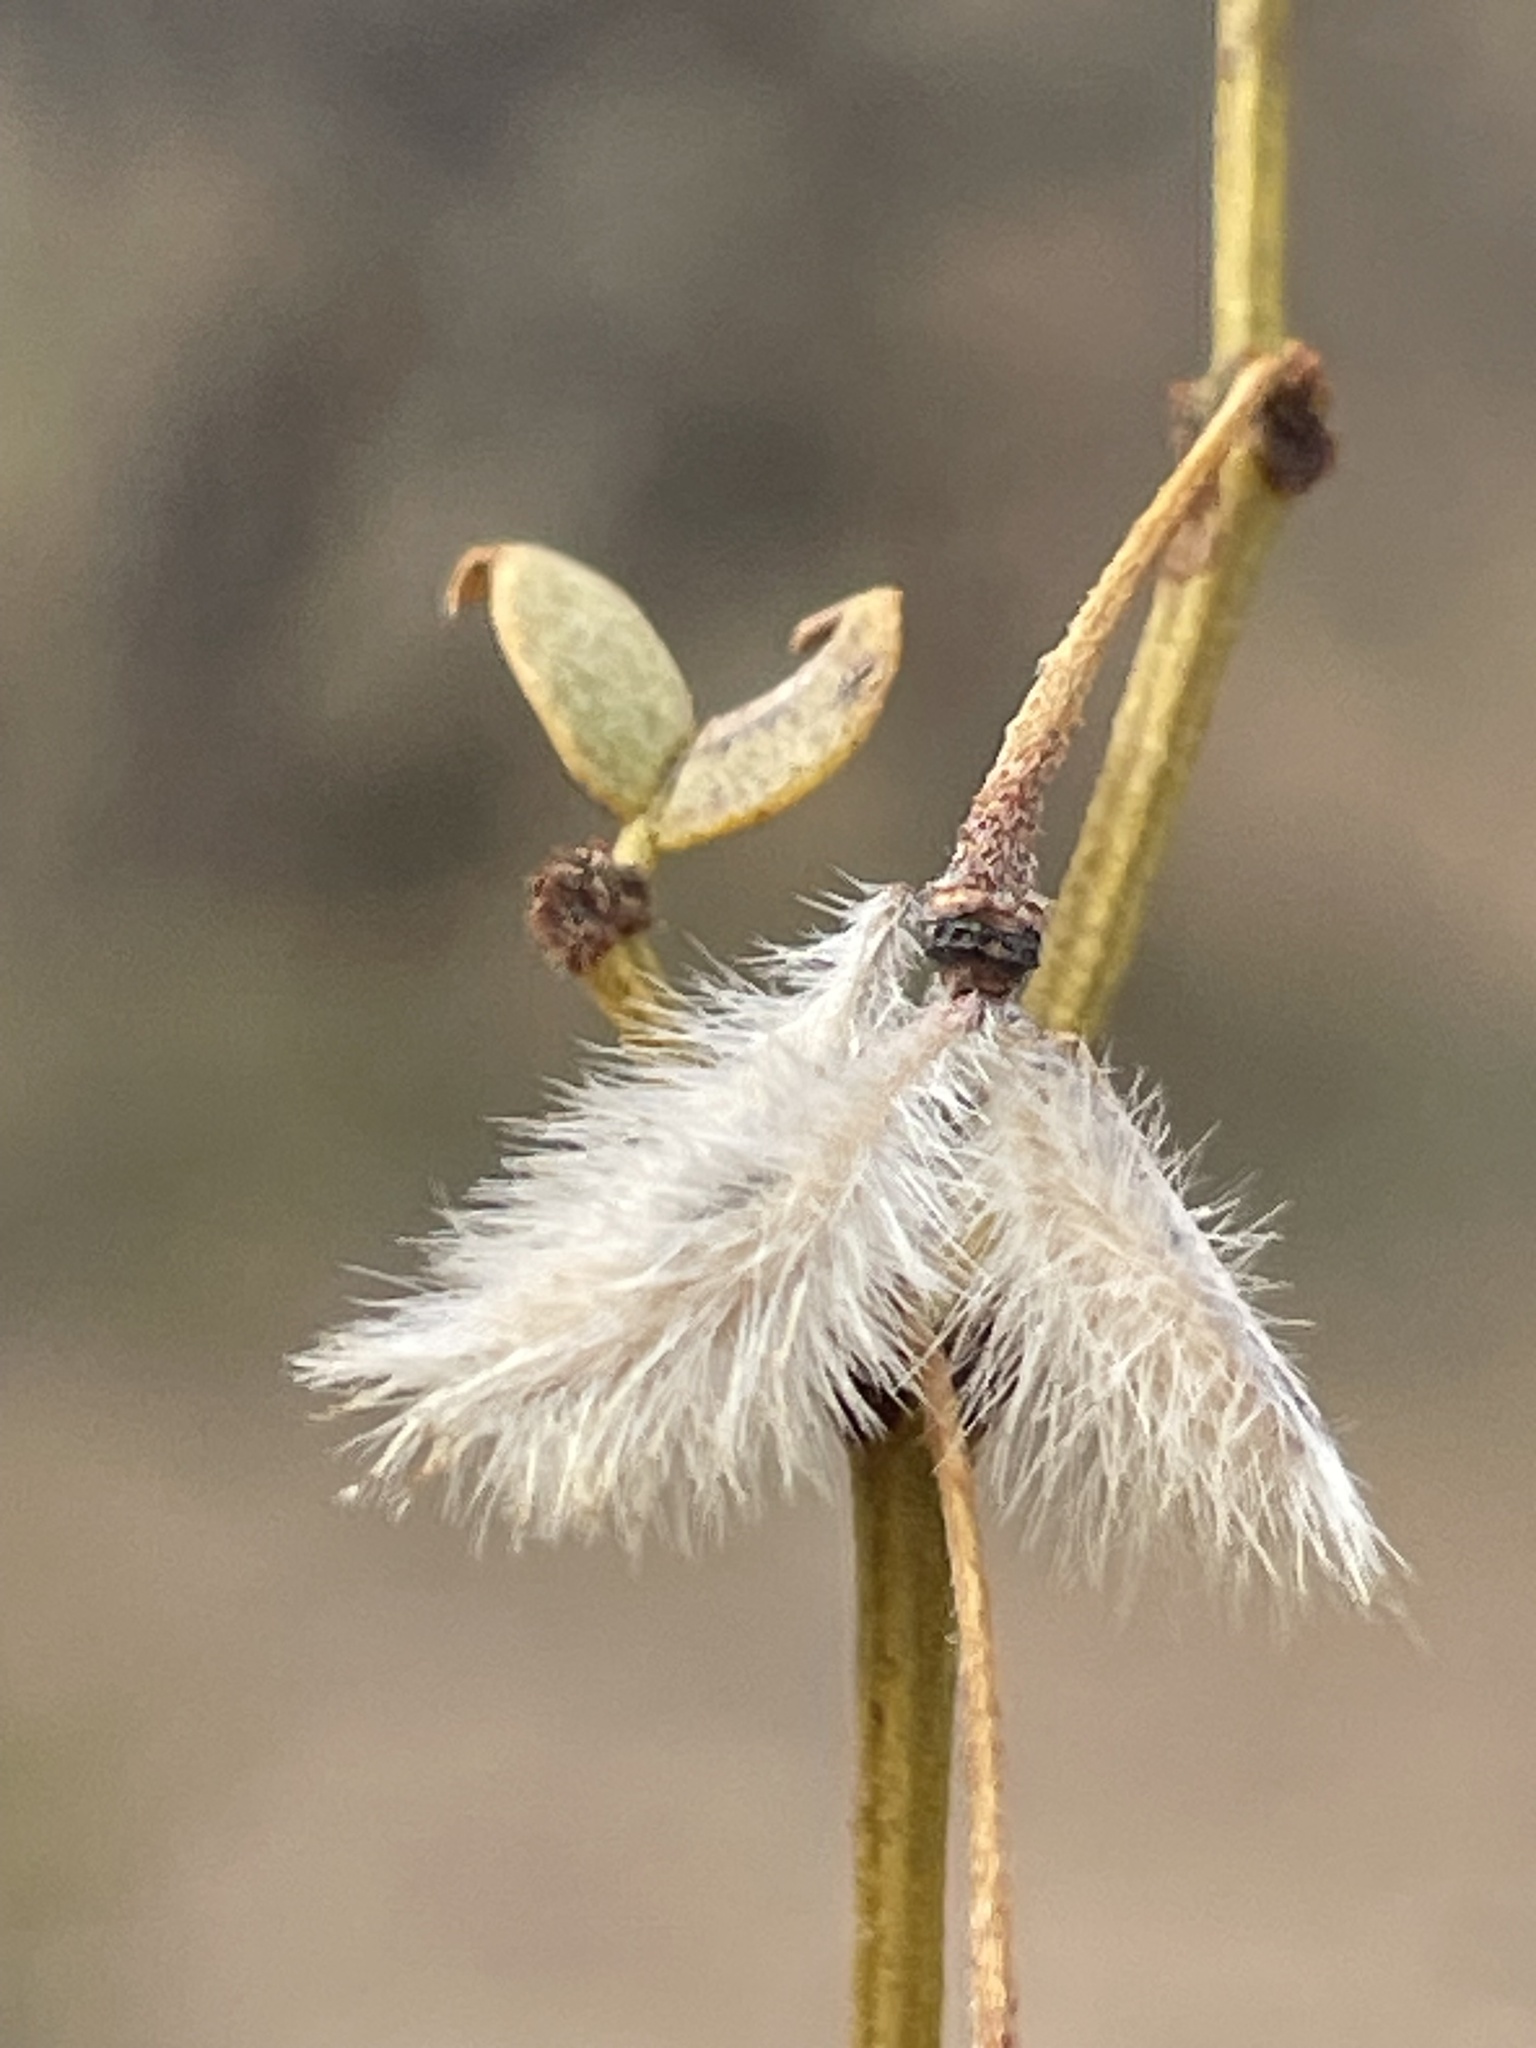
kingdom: Plantae
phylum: Tracheophyta
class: Magnoliopsida
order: Zygophyllales
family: Zygophyllaceae
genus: Larrea
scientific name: Larrea tridentata
